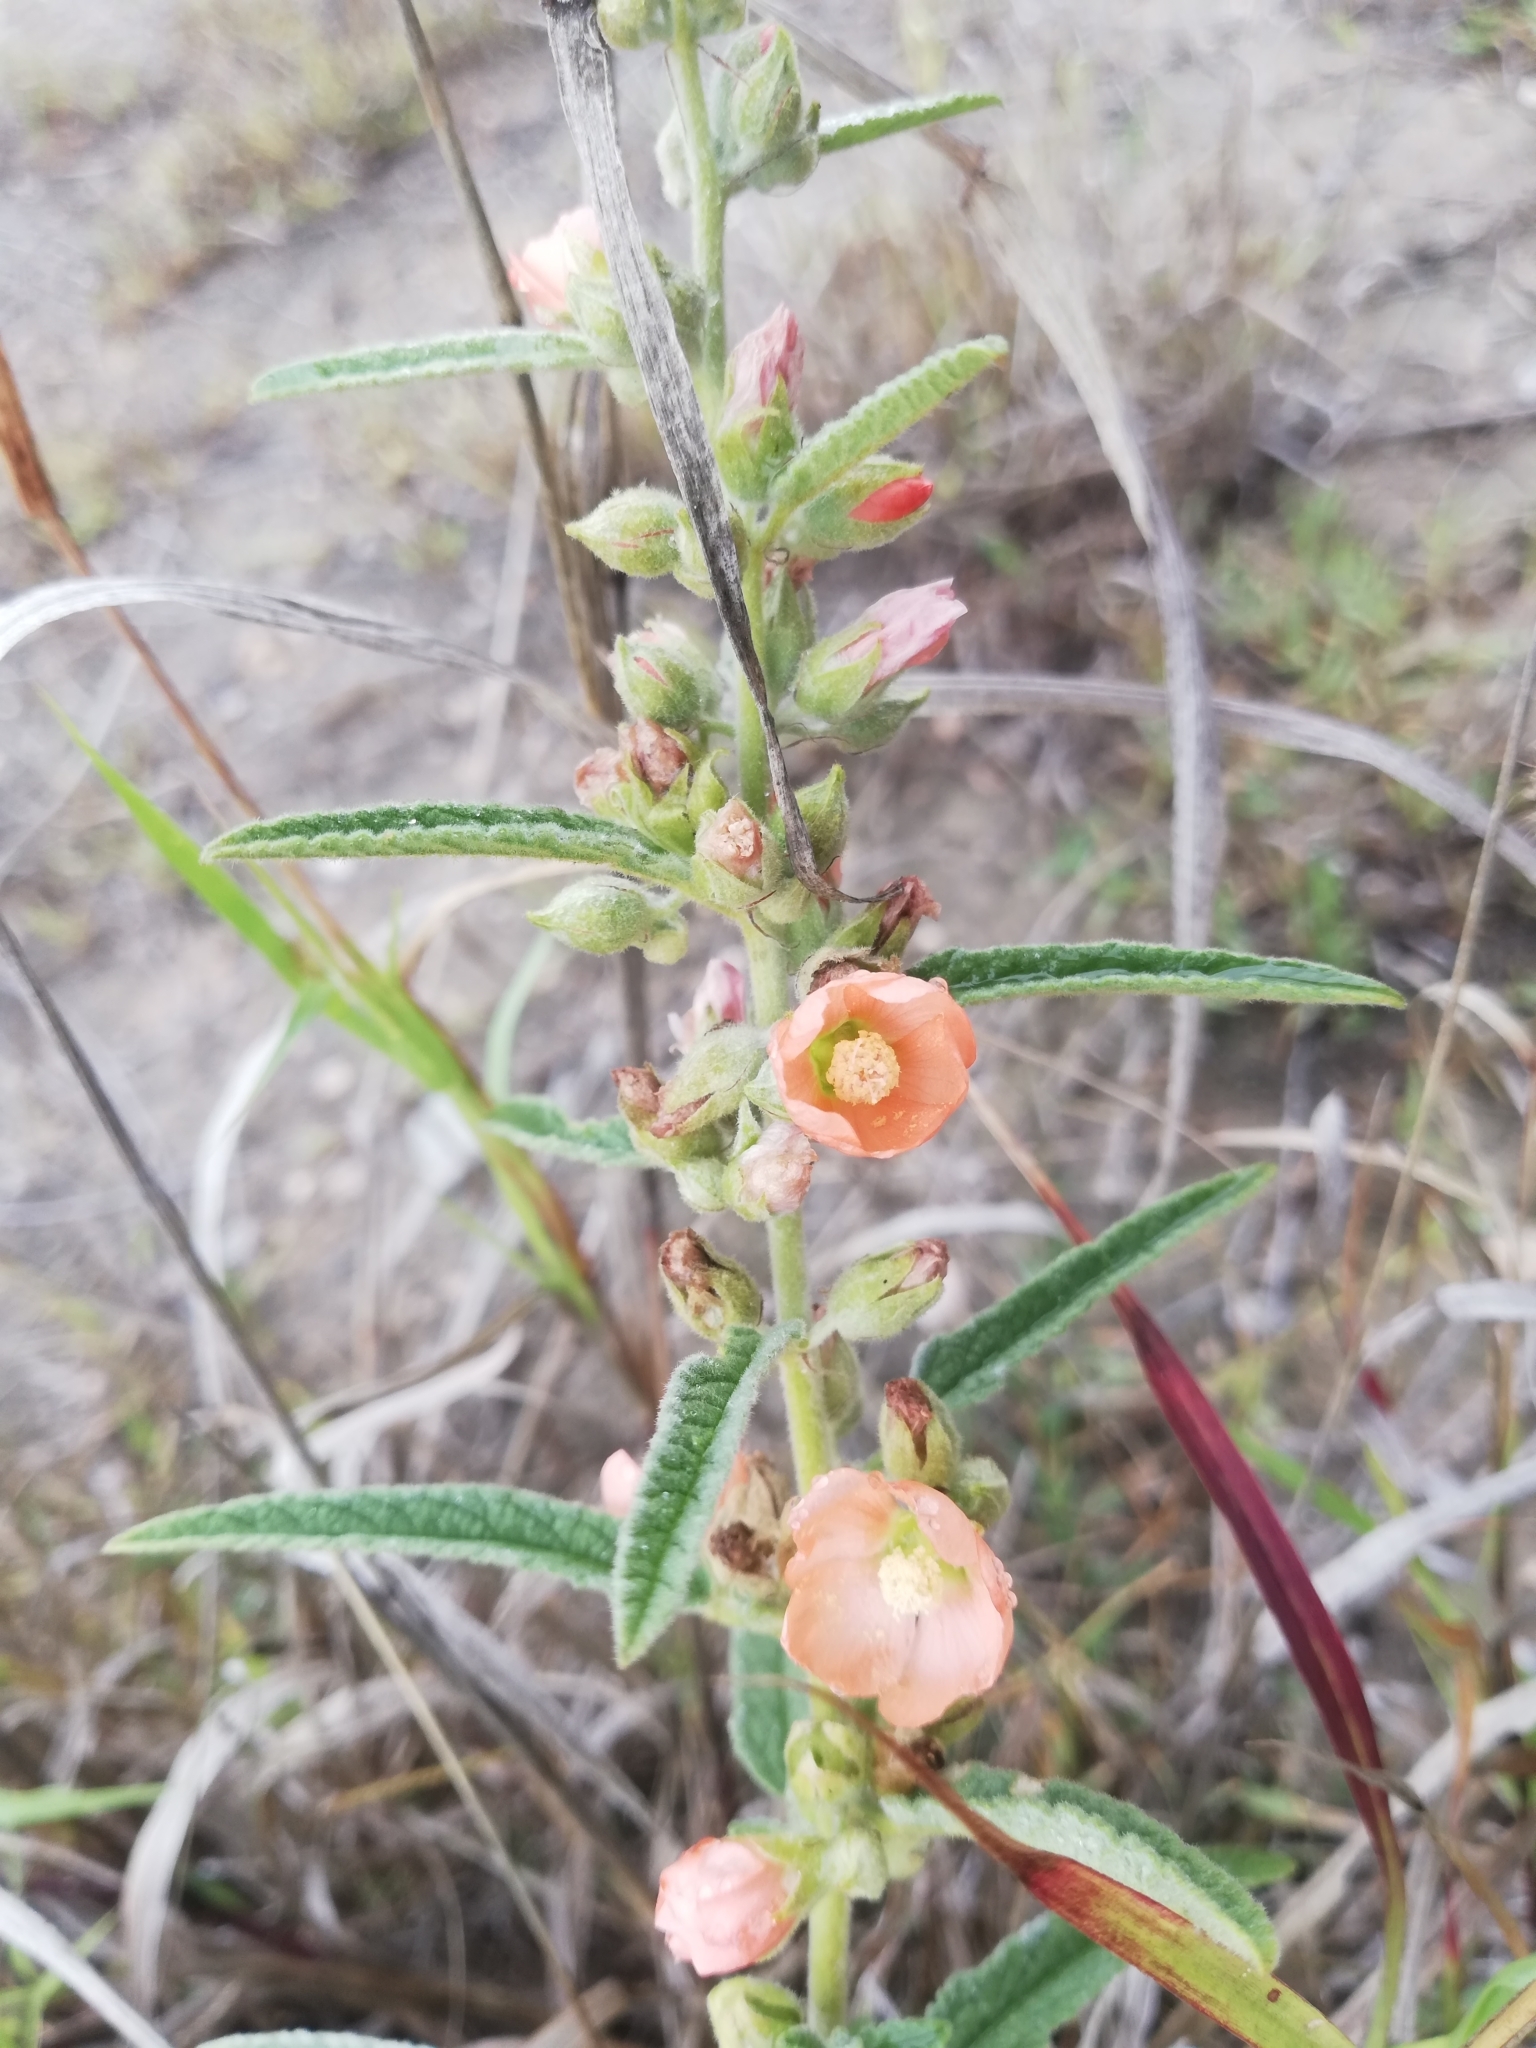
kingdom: Plantae
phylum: Tracheophyta
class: Magnoliopsida
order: Malvales
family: Malvaceae
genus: Sphaeralcea
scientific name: Sphaeralcea angustifolia
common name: Copper globe-mallow
